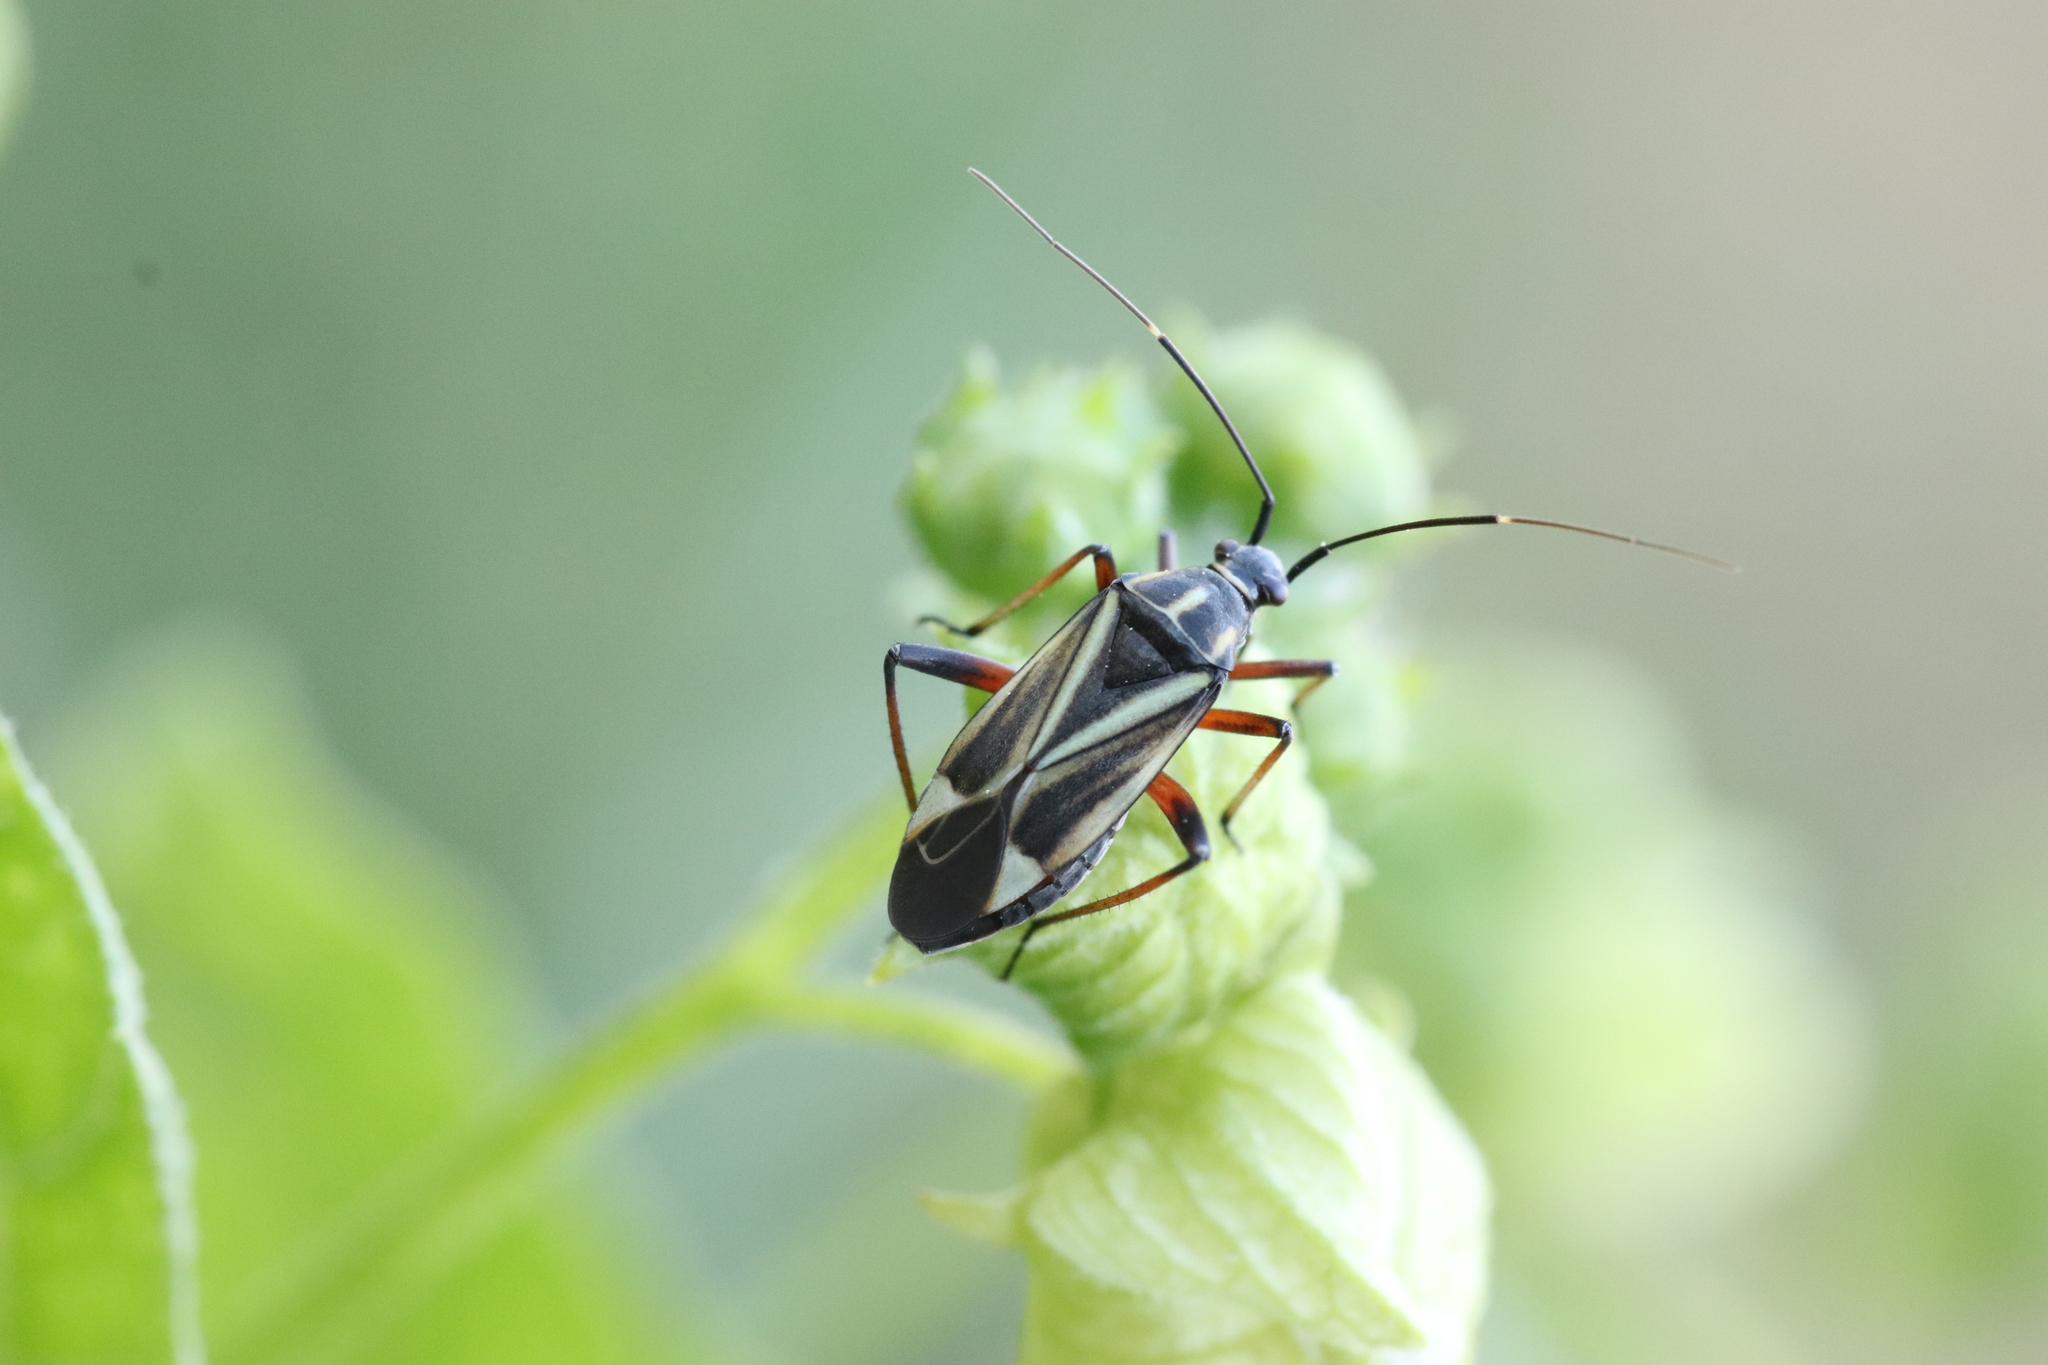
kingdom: Animalia
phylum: Arthropoda
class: Insecta
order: Hemiptera
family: Miridae
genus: Hadrodemus
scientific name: Hadrodemus m-flavum
